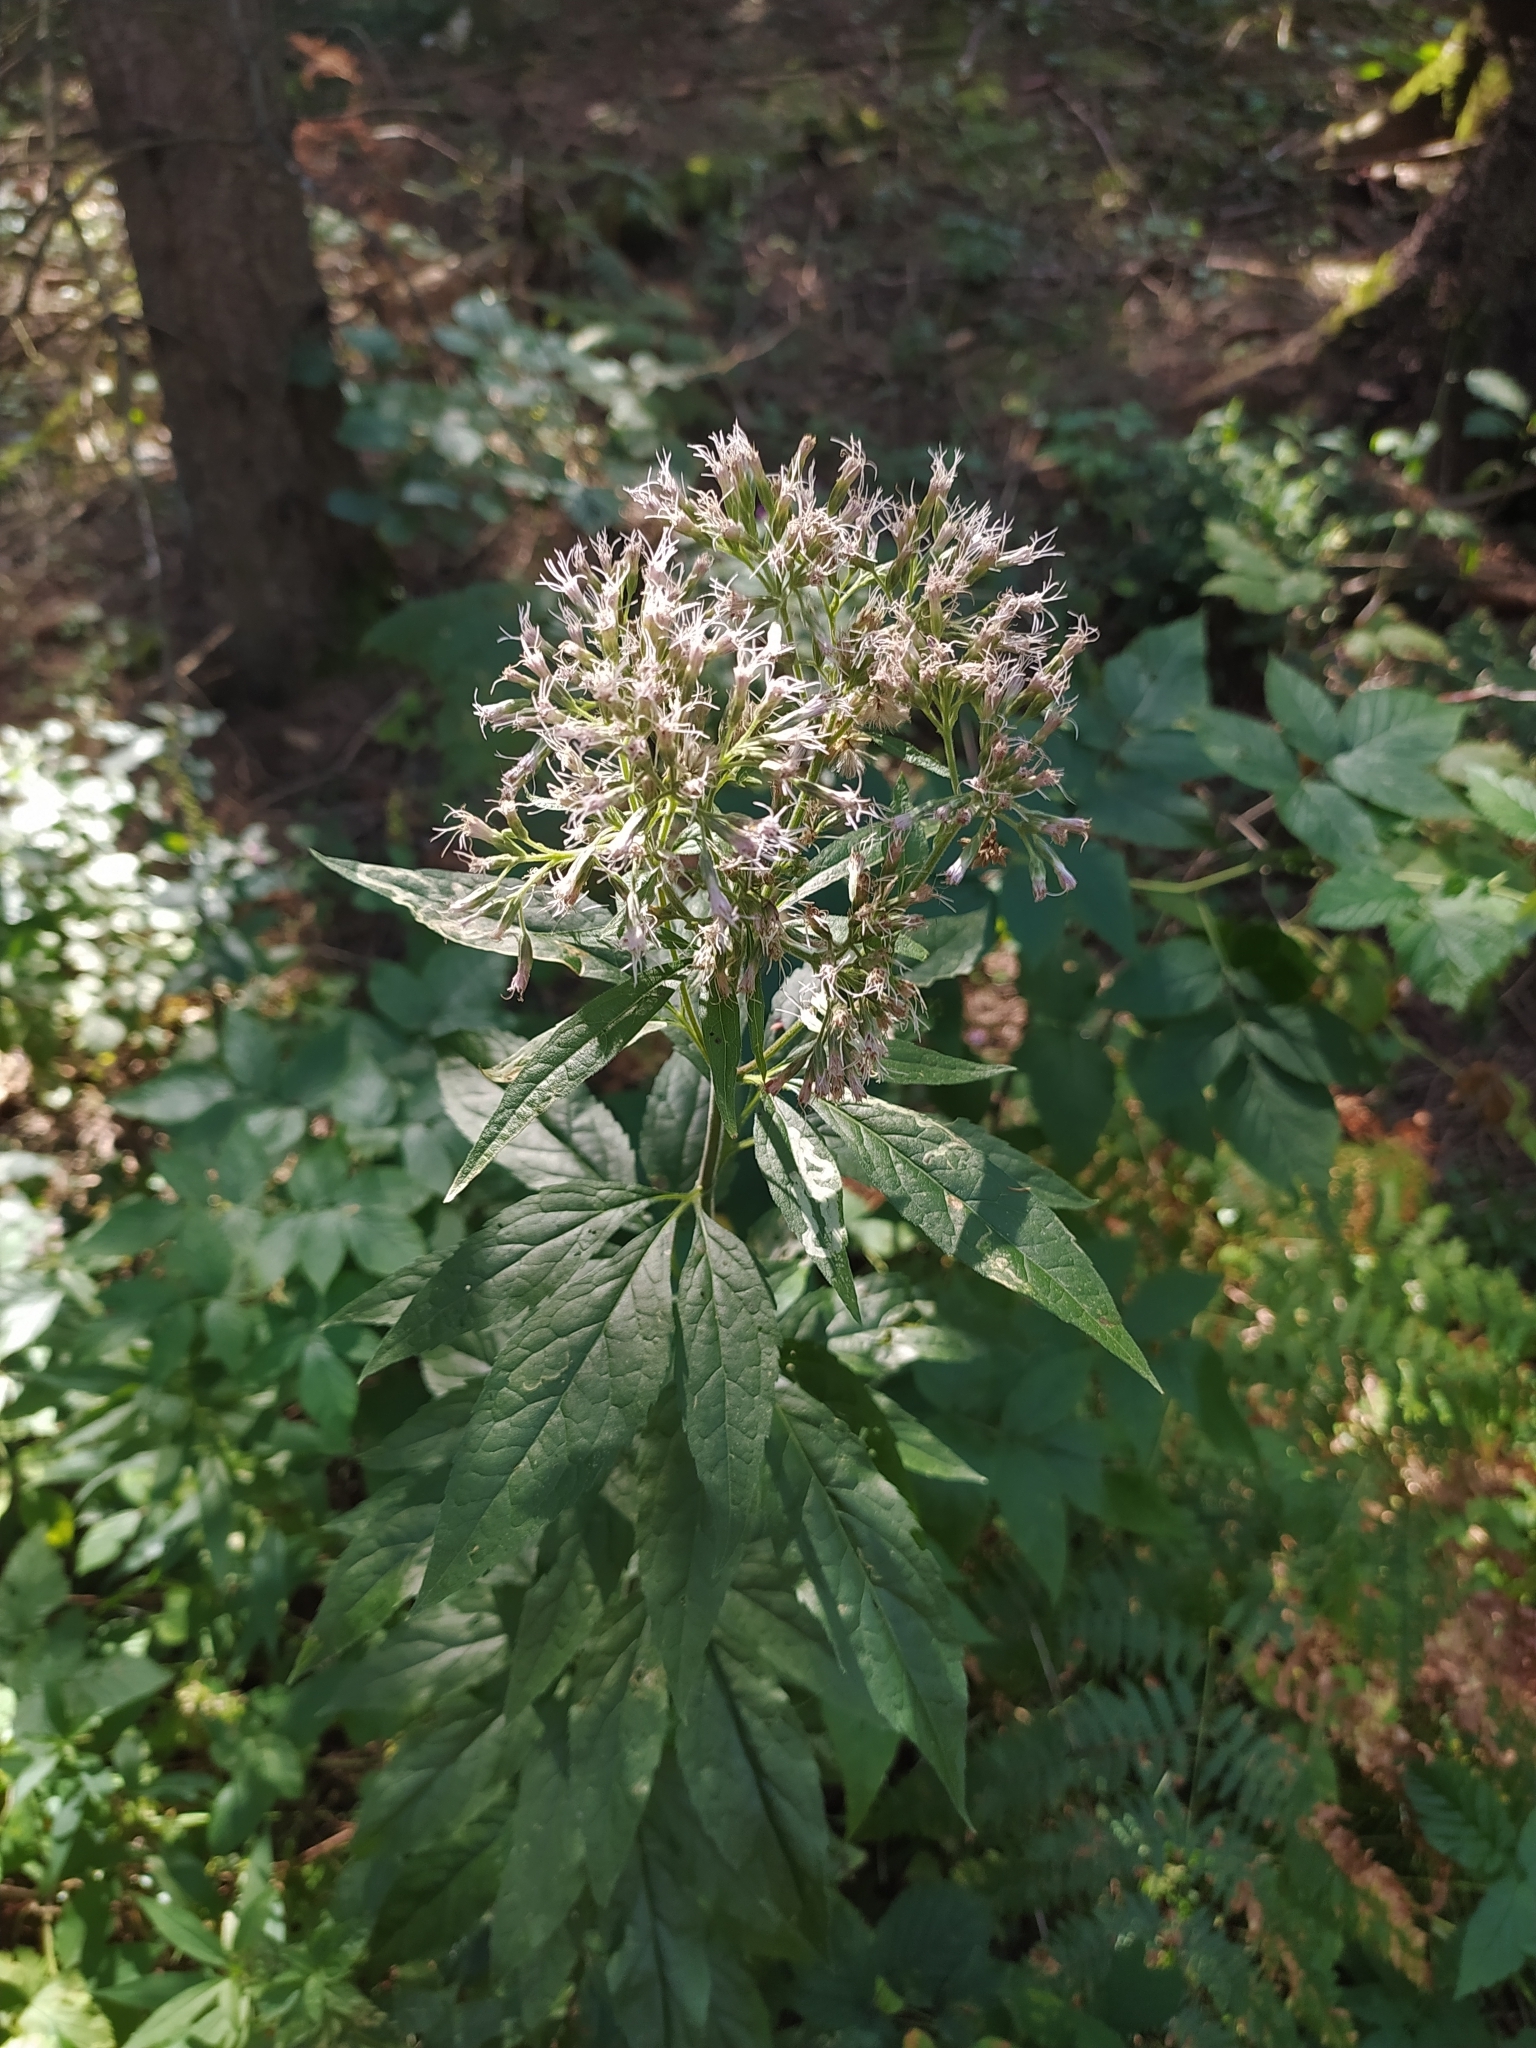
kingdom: Plantae
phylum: Tracheophyta
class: Magnoliopsida
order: Asterales
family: Asteraceae
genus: Eupatorium
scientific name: Eupatorium cannabinum
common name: Hemp-agrimony
